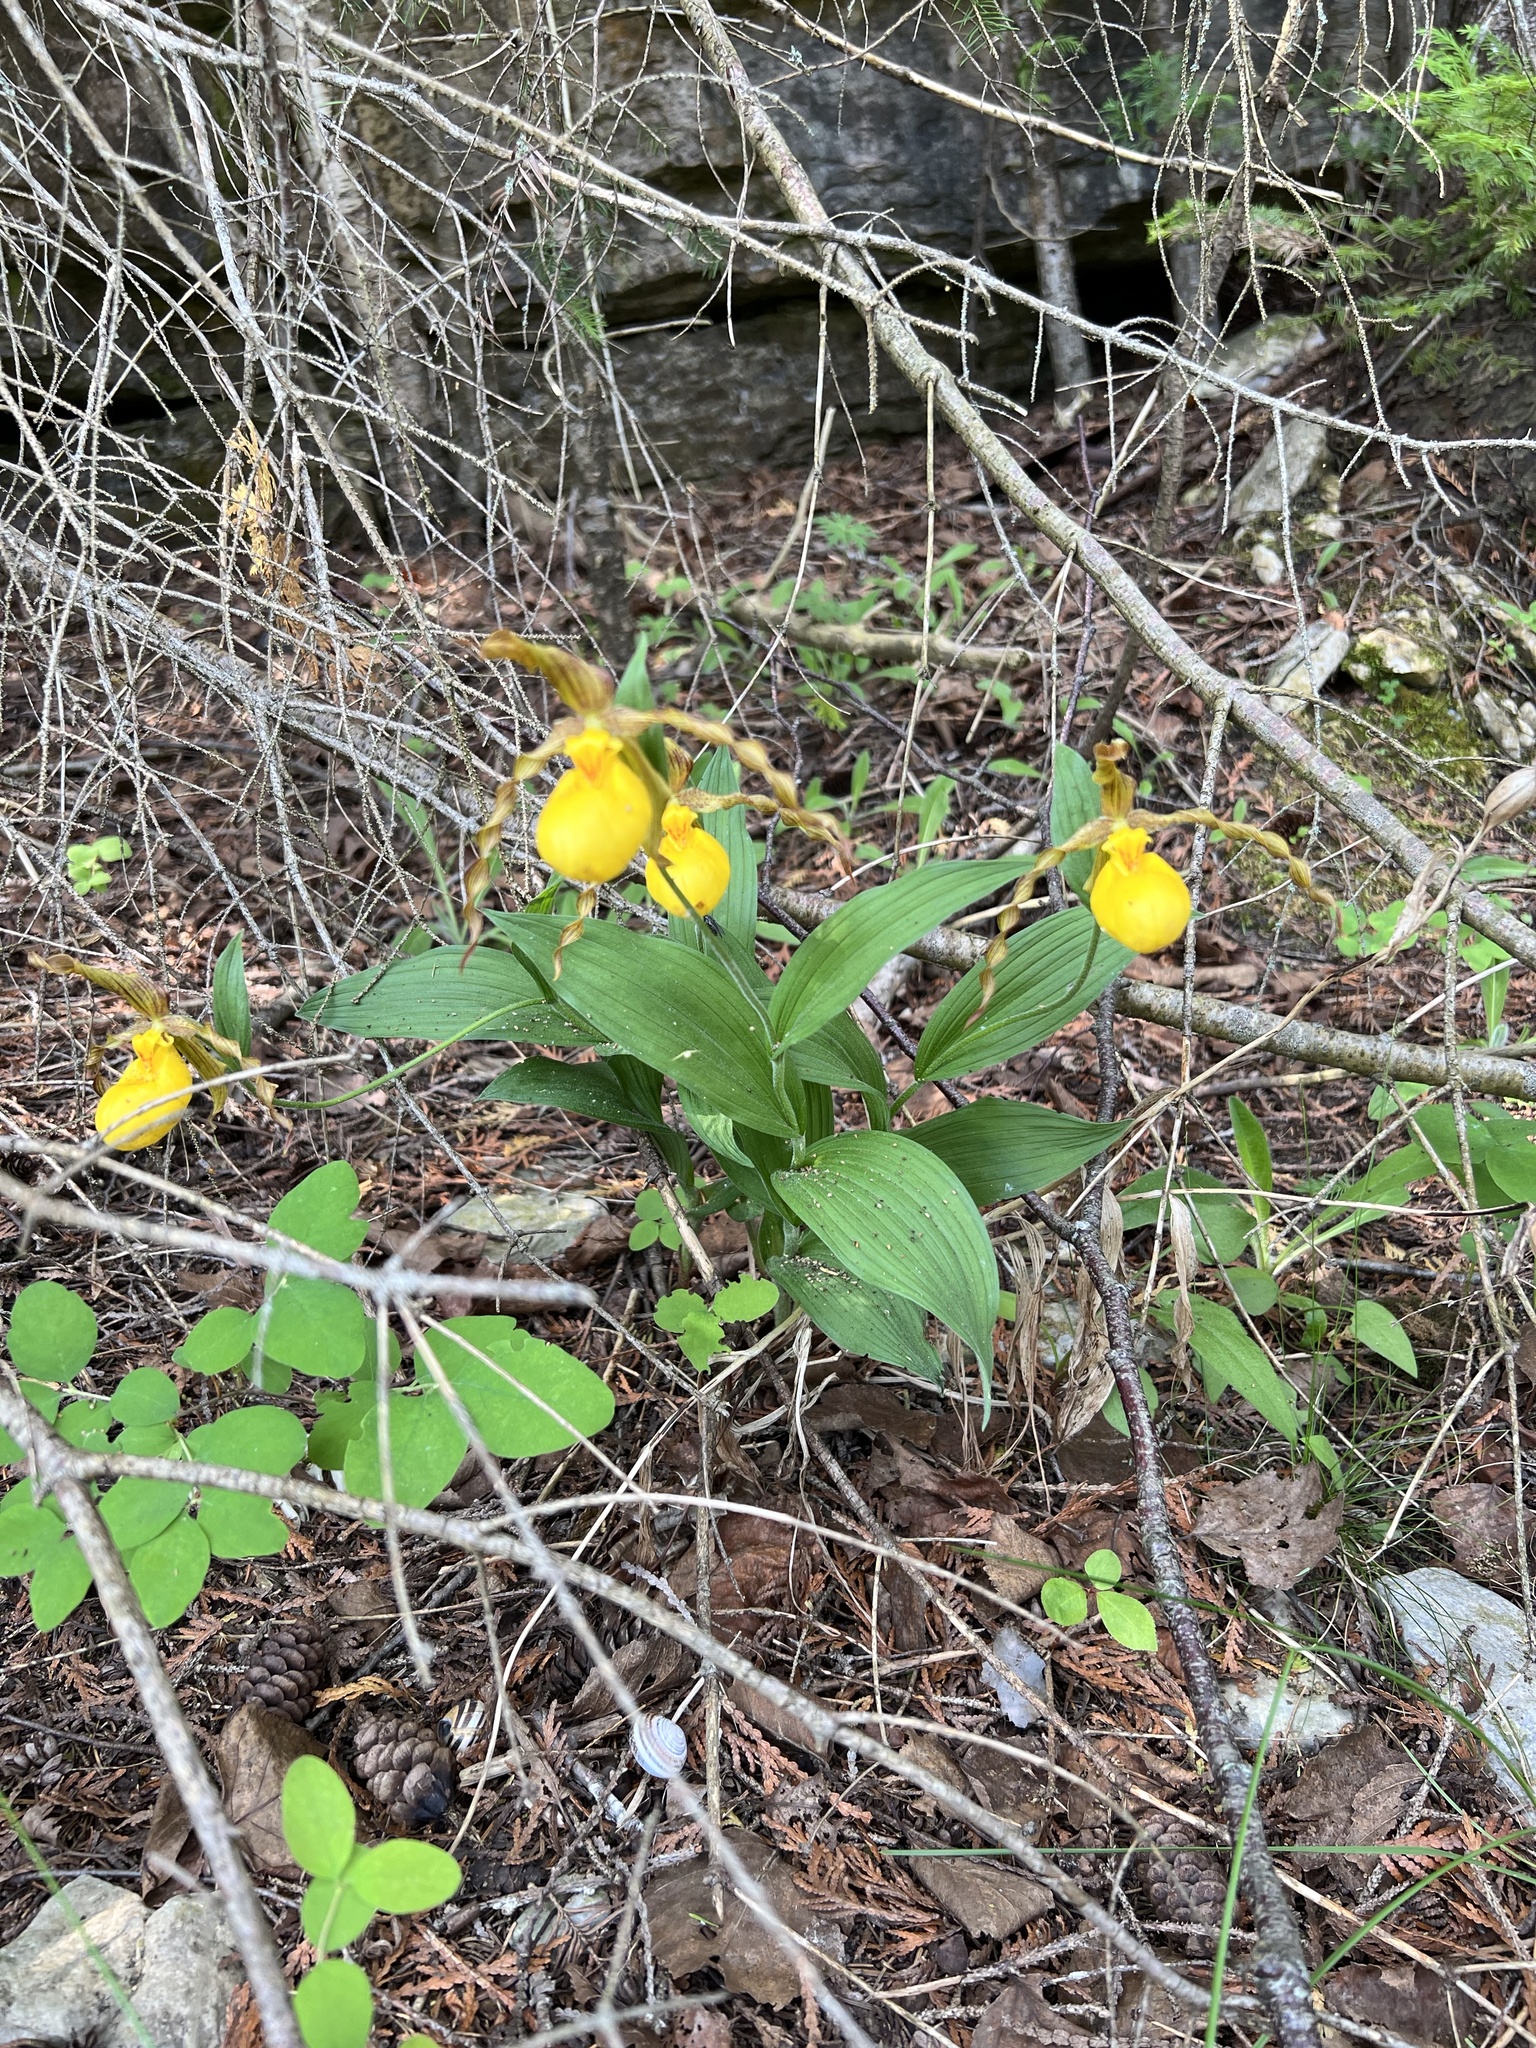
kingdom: Plantae
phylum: Tracheophyta
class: Liliopsida
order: Asparagales
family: Orchidaceae
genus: Cypripedium
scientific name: Cypripedium parviflorum
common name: American yellow lady's-slipper
